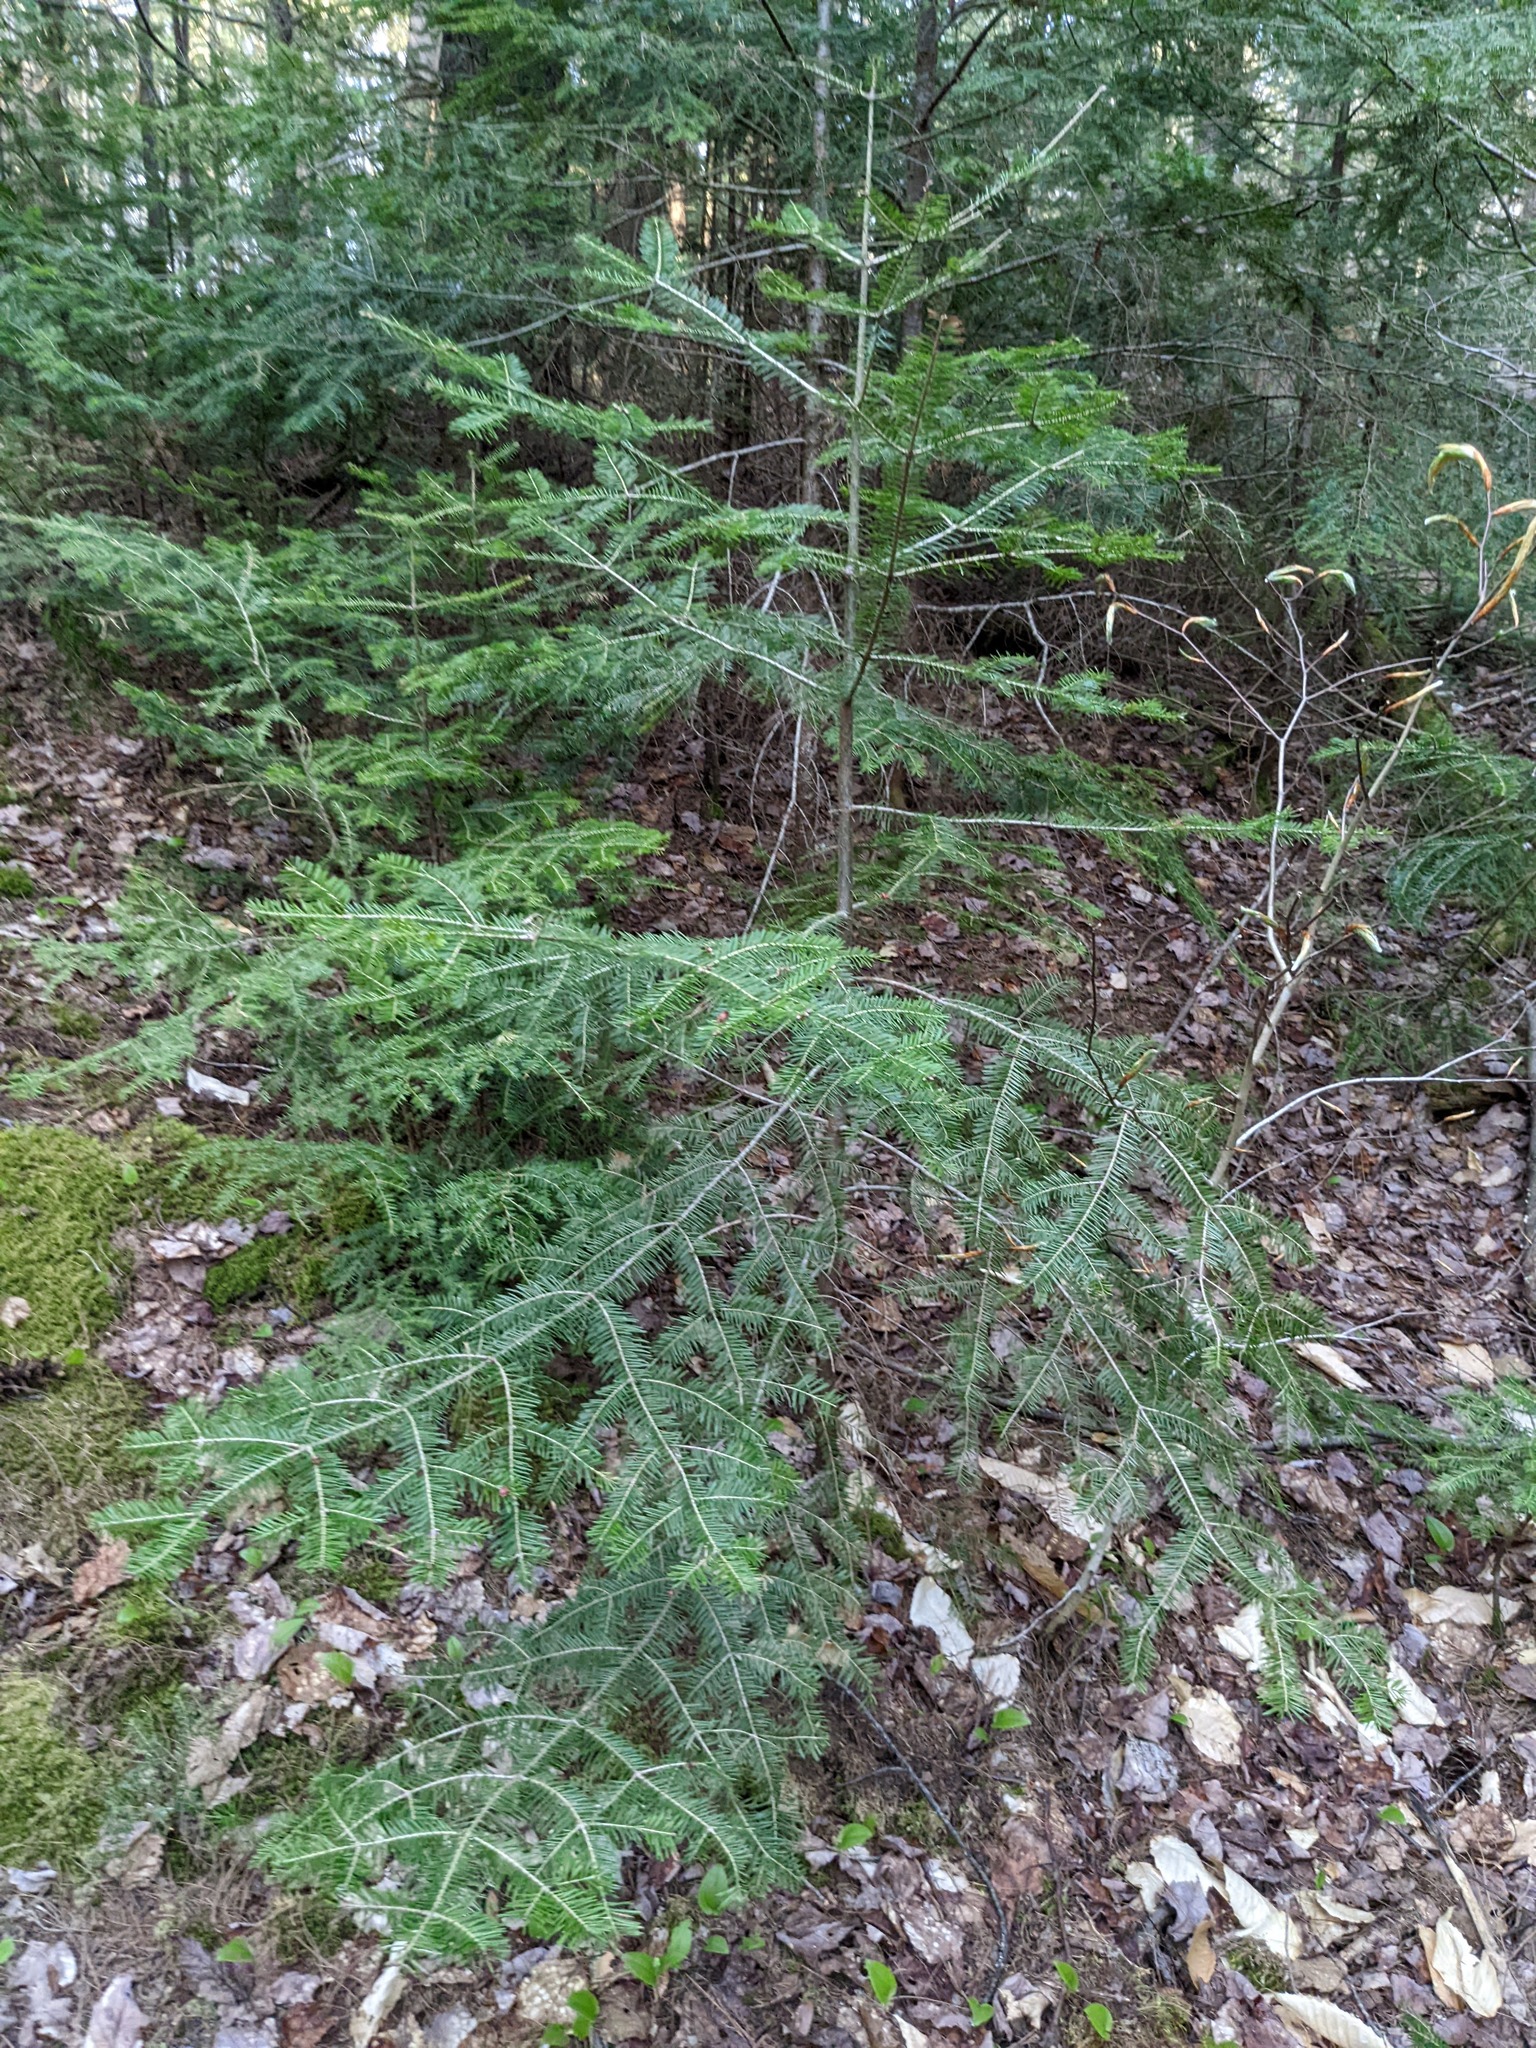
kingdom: Plantae
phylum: Tracheophyta
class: Pinopsida
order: Pinales
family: Pinaceae
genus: Abies
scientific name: Abies balsamea
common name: Balsam fir
